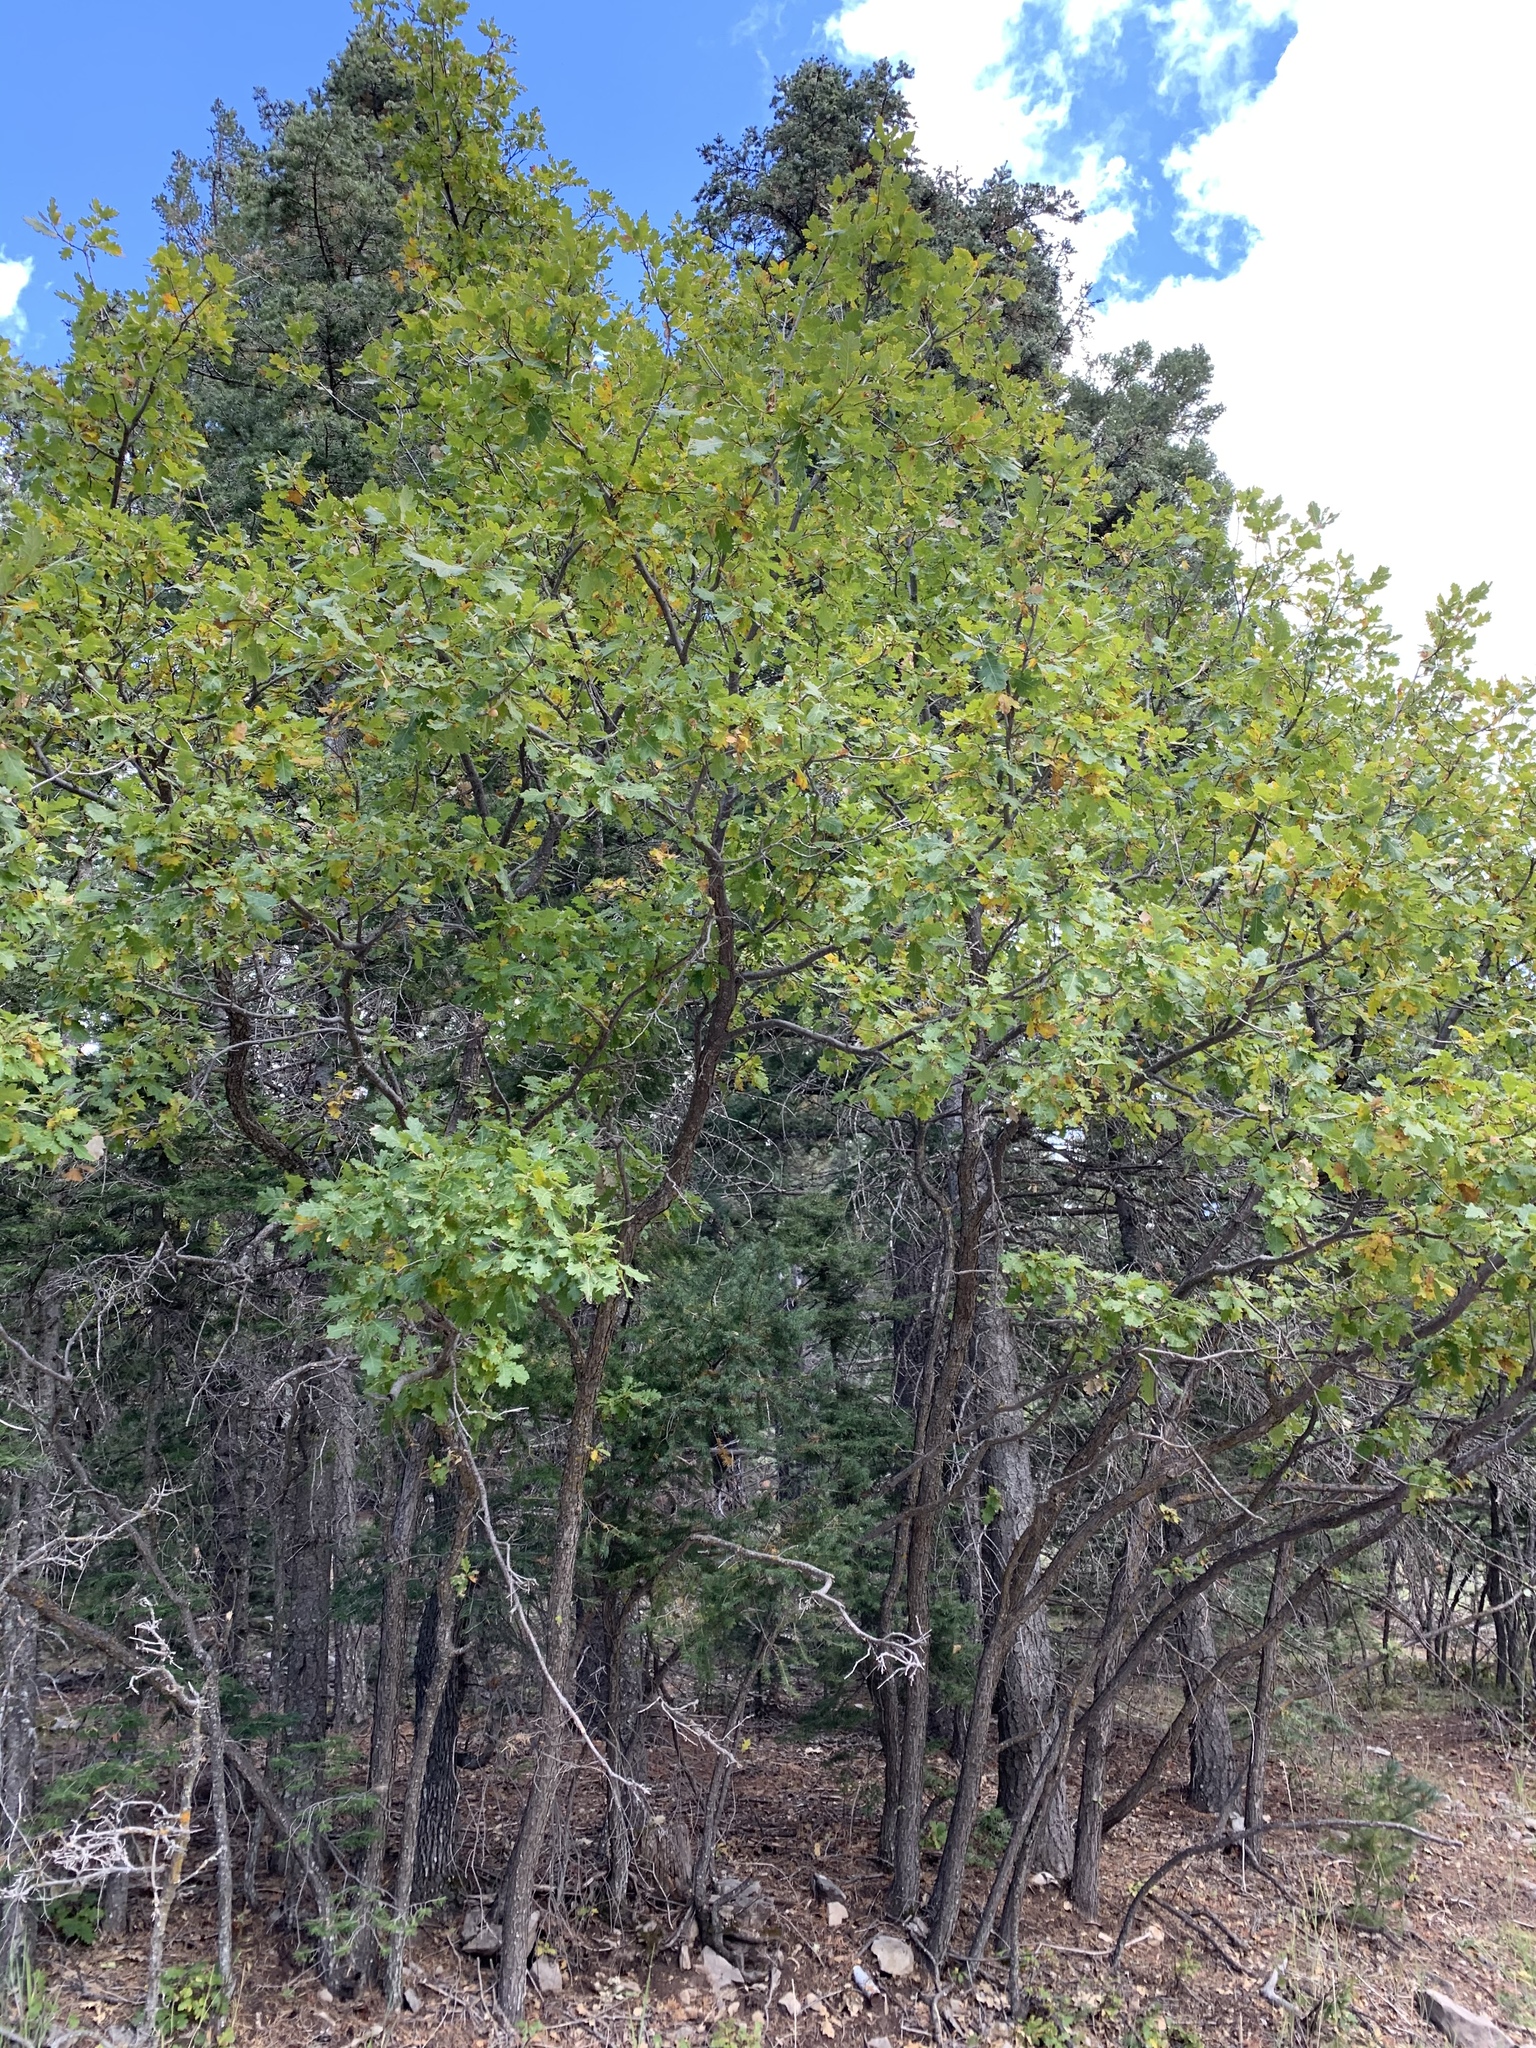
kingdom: Plantae
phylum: Tracheophyta
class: Magnoliopsida
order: Fagales
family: Fagaceae
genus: Quercus
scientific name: Quercus gambelii
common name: Gambel oak
